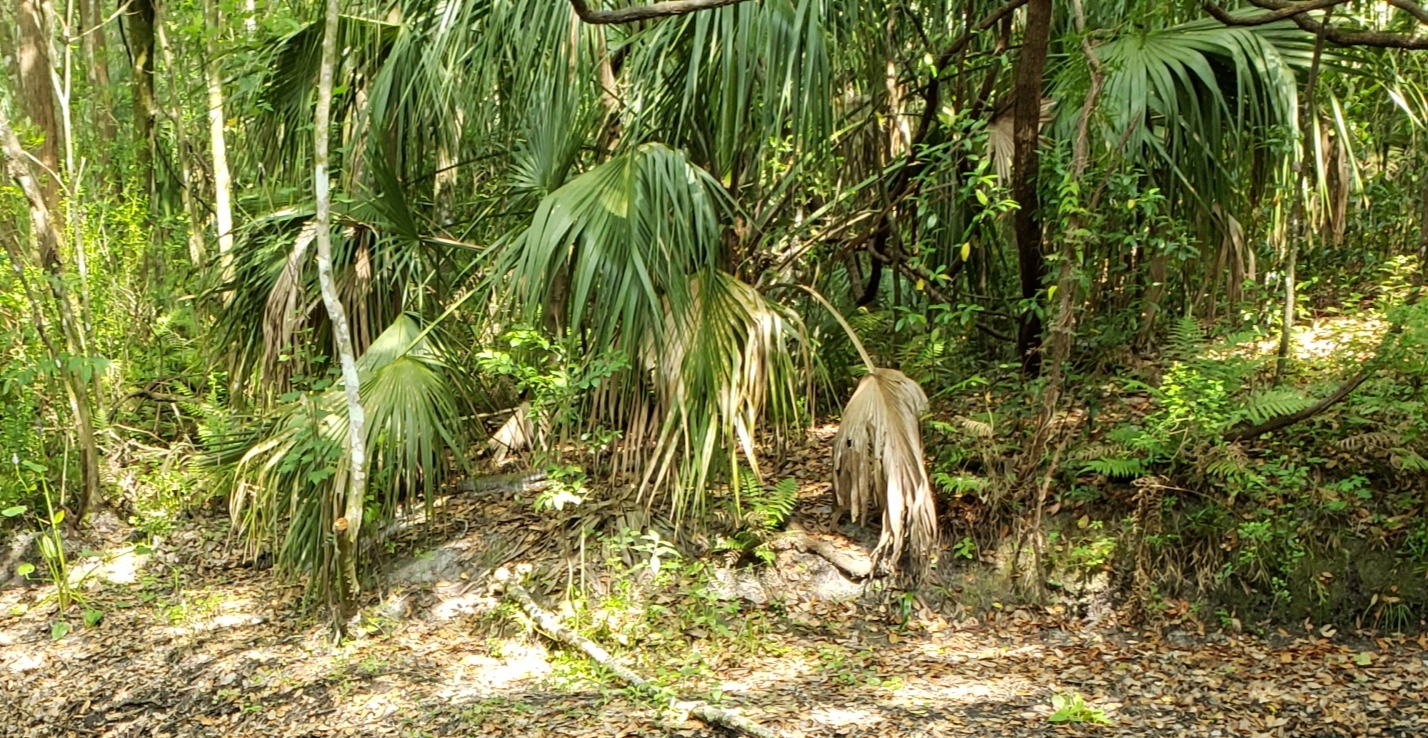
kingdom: Plantae
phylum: Tracheophyta
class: Liliopsida
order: Arecales
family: Arecaceae
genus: Sabal
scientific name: Sabal palmetto
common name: Blue palmetto
